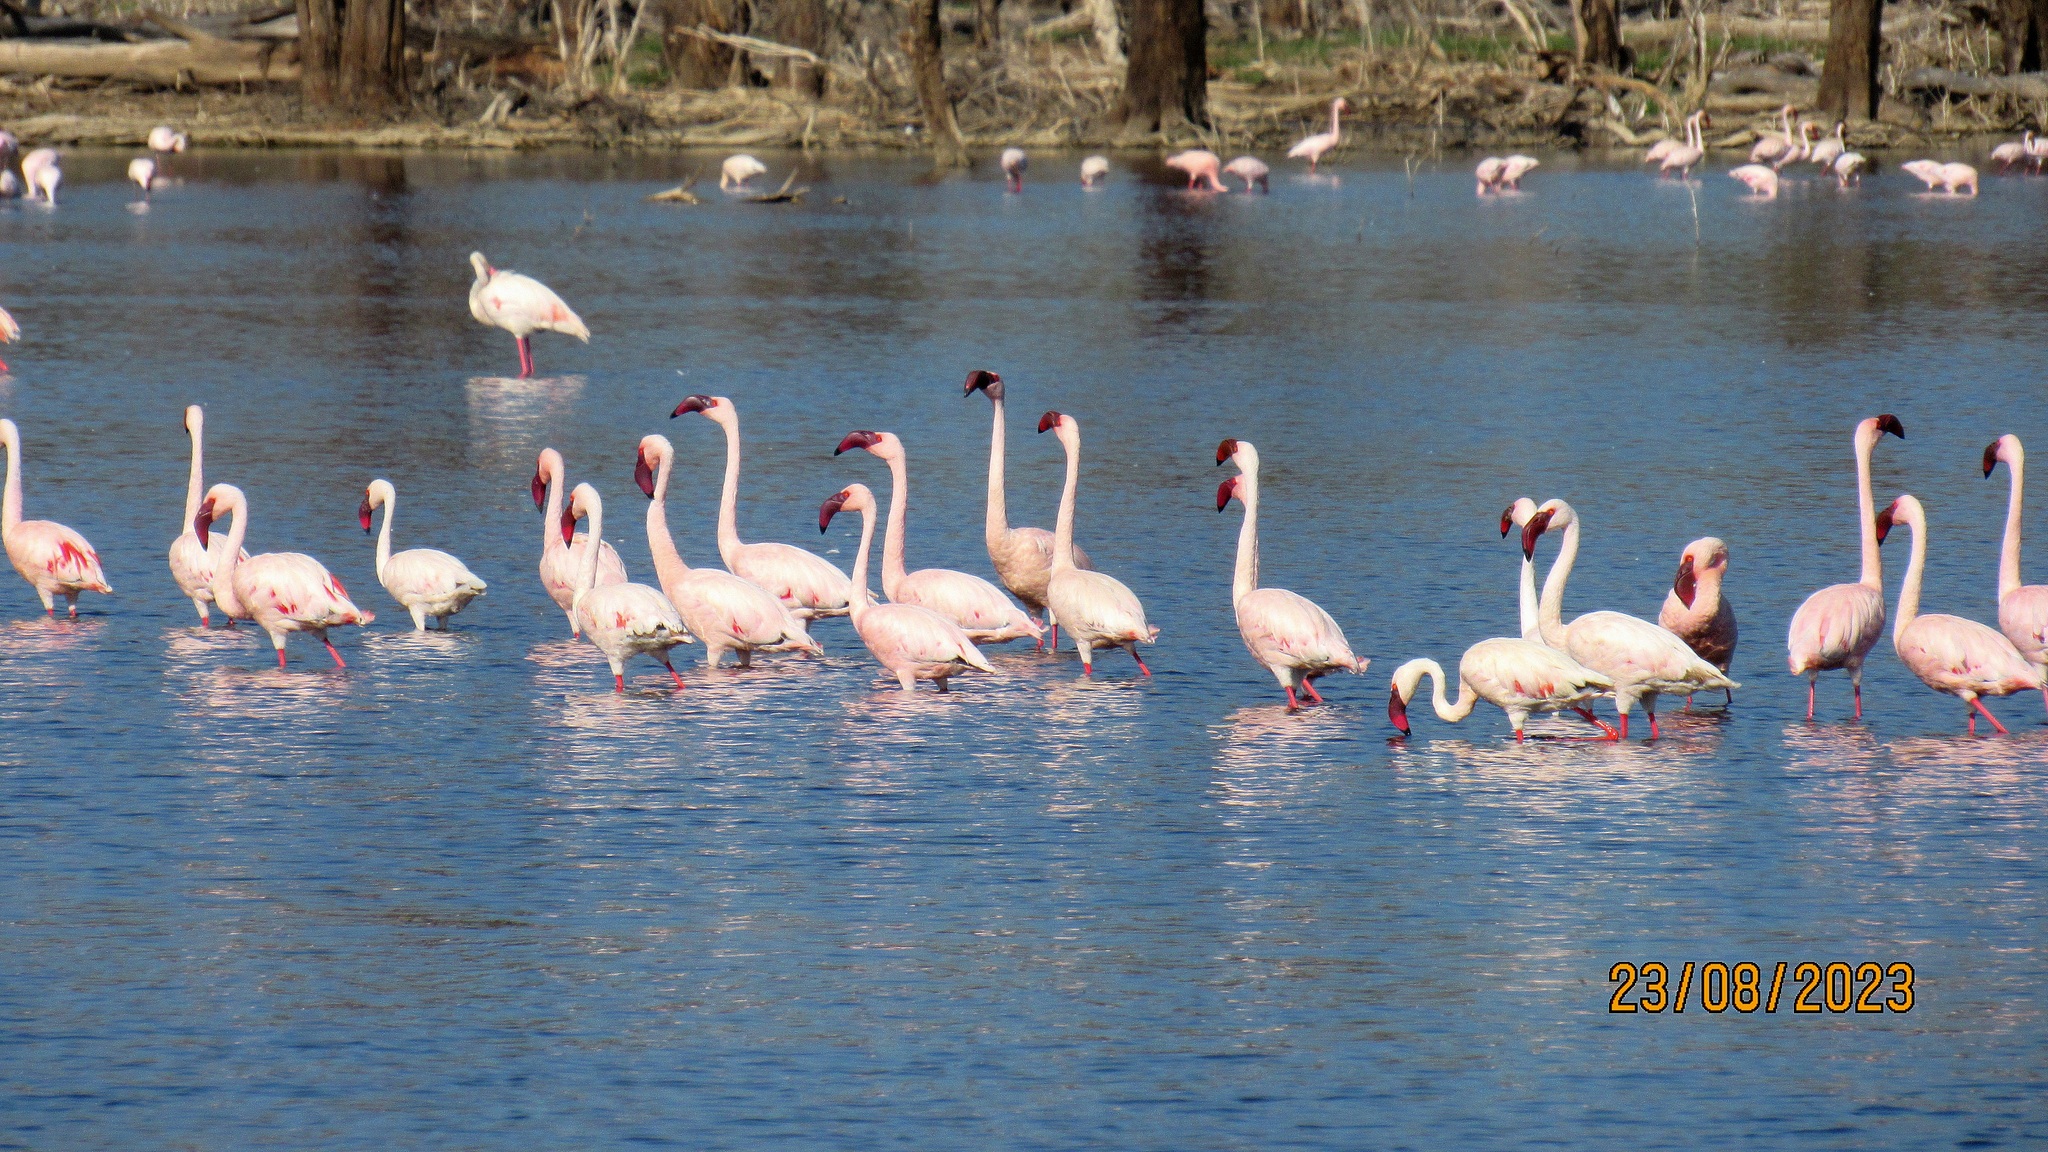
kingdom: Animalia
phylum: Chordata
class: Aves
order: Phoenicopteriformes
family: Phoenicopteridae
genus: Phoeniconaias
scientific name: Phoeniconaias minor
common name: Lesser flamingo
